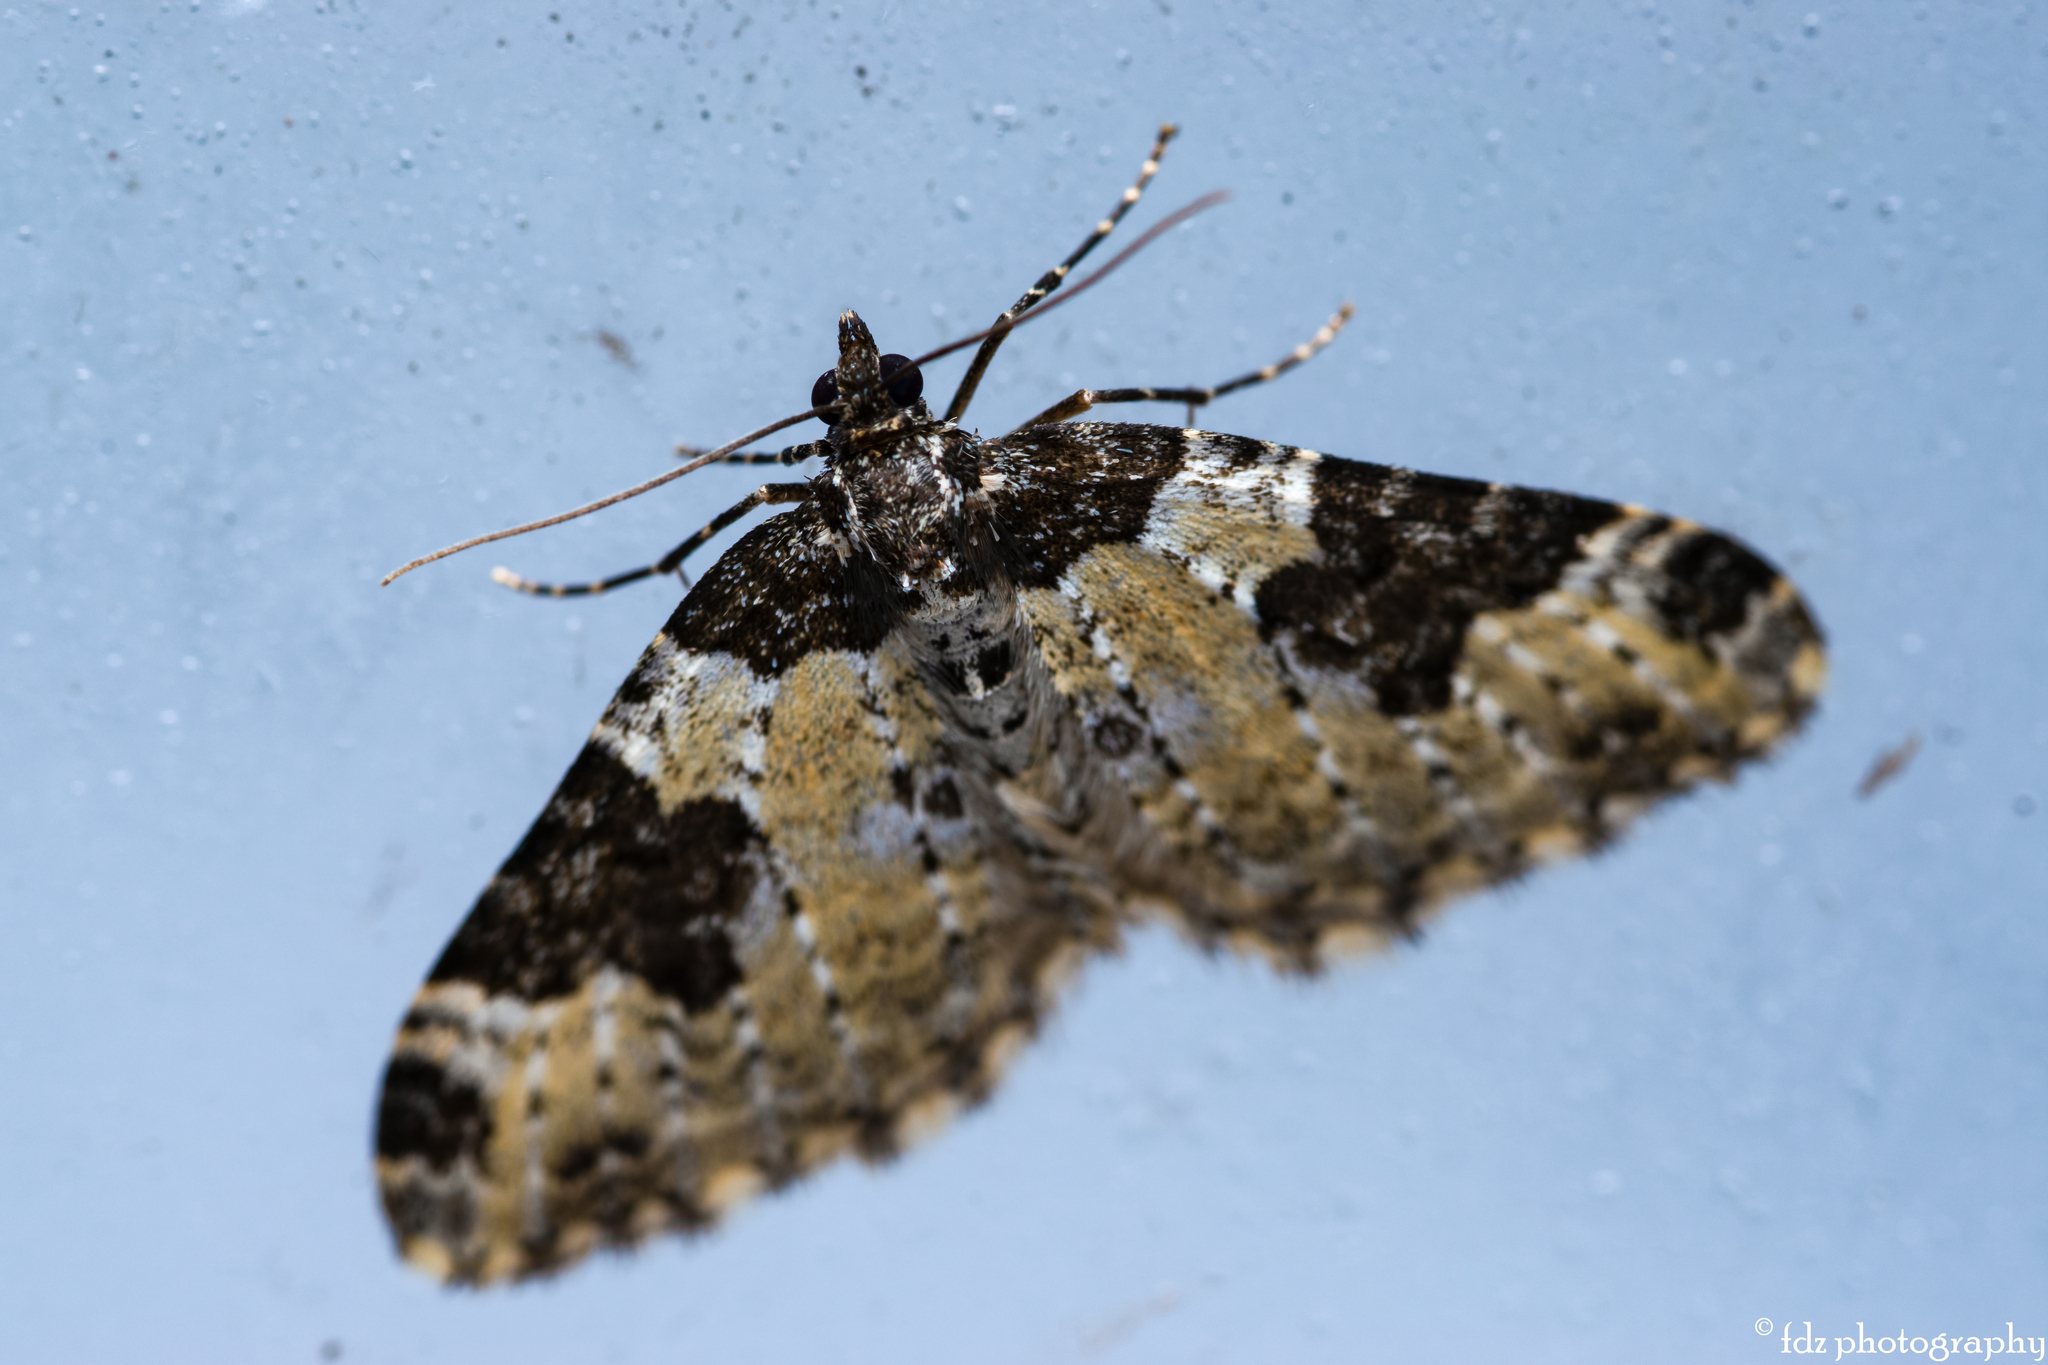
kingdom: Animalia
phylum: Arthropoda
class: Insecta
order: Lepidoptera
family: Geometridae
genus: Xanthorhoe
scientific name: Xanthorhoe fluctuata
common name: Garden carpet
